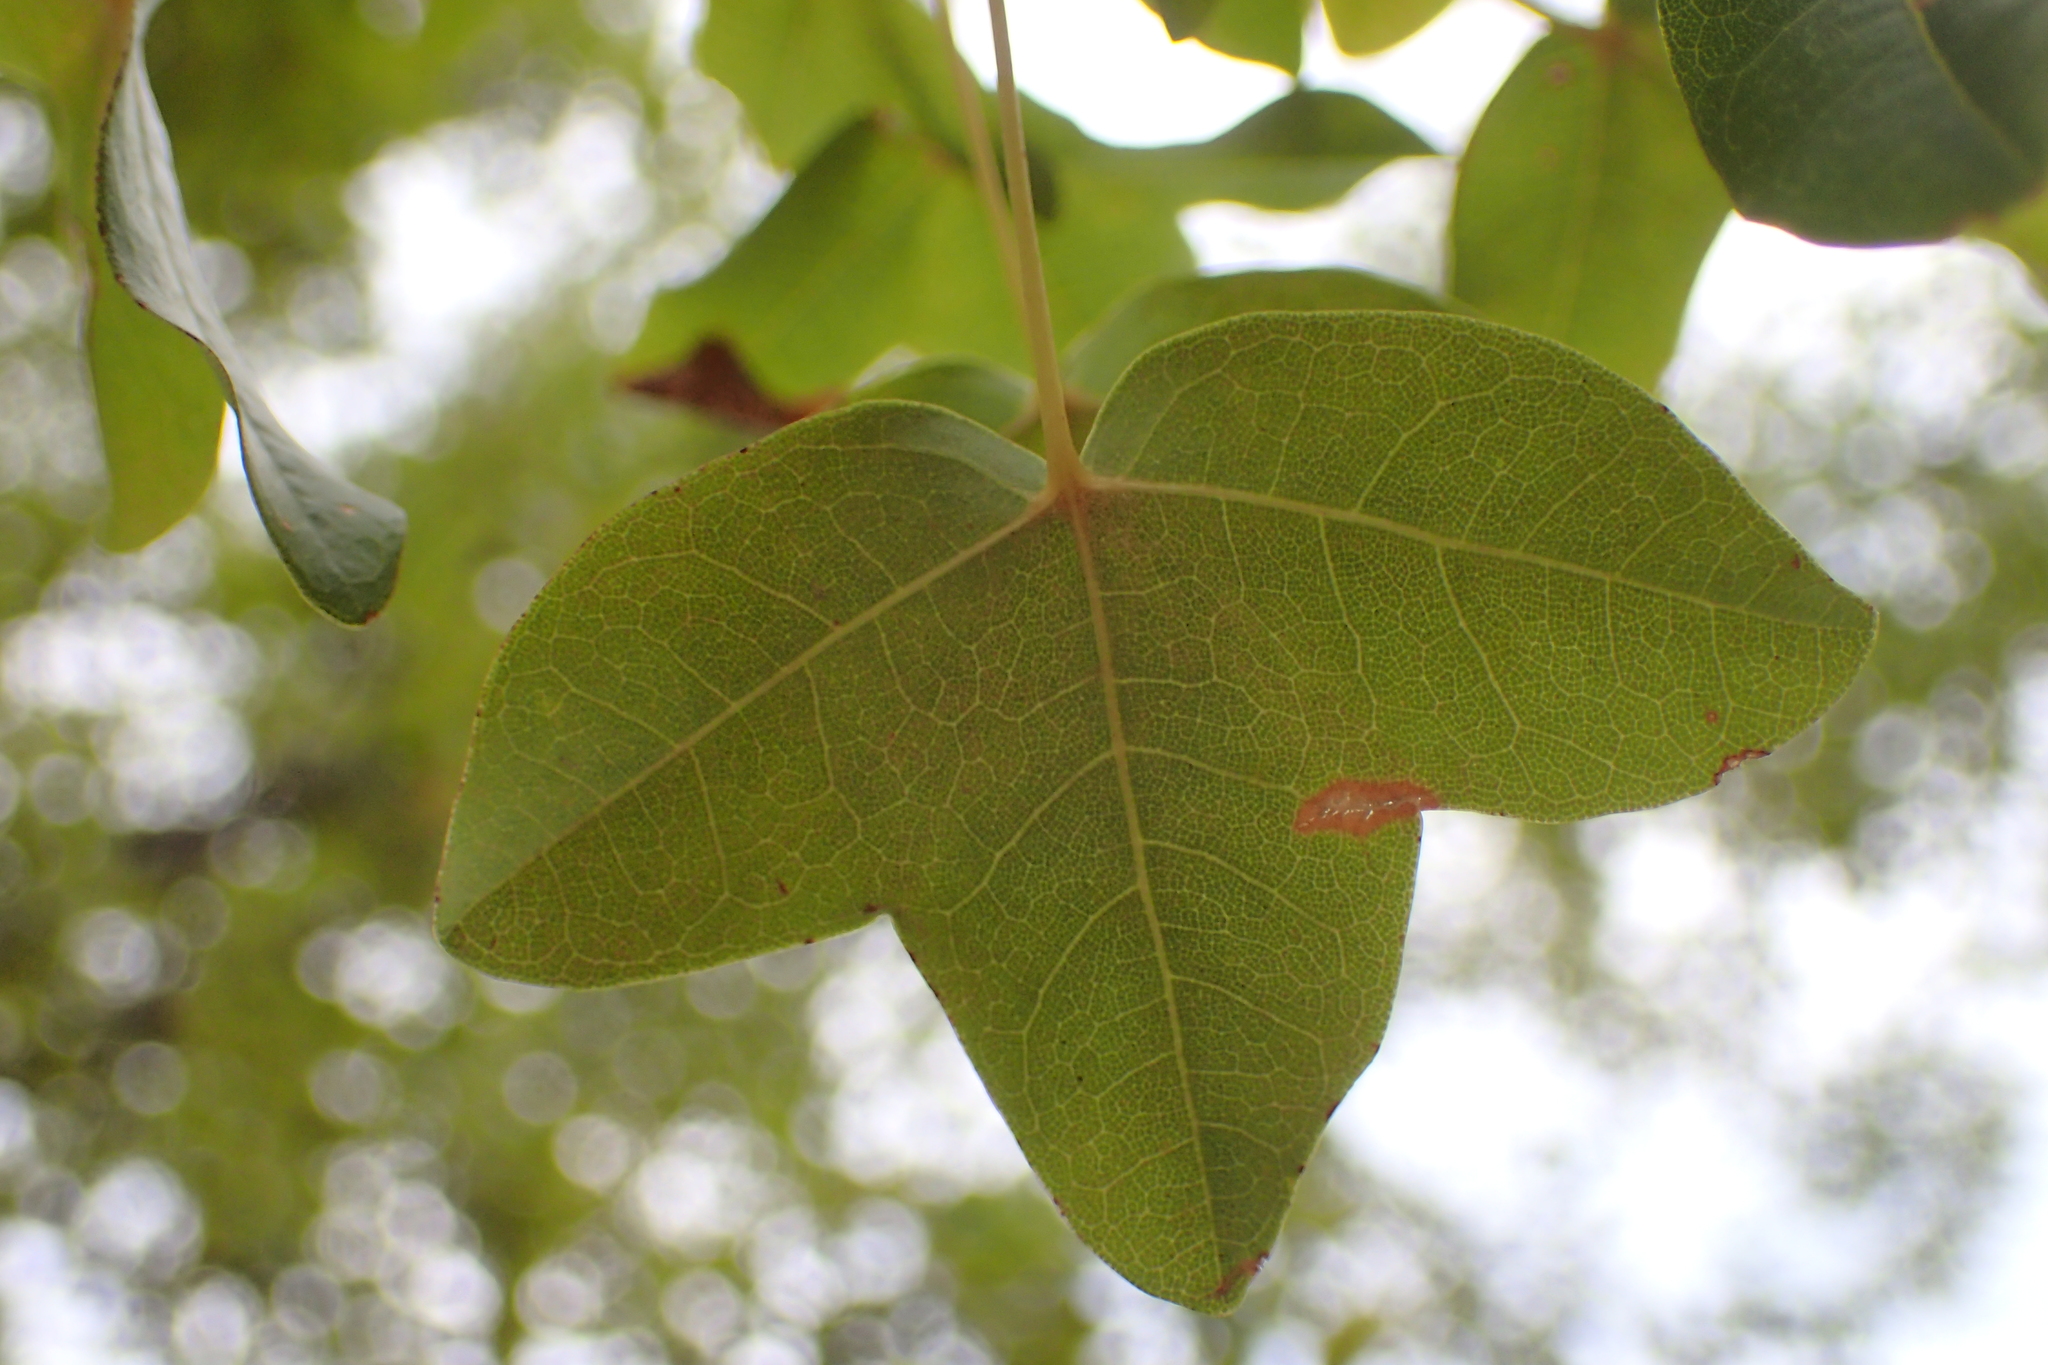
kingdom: Plantae
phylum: Tracheophyta
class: Magnoliopsida
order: Sapindales
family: Sapindaceae
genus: Acer
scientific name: Acer monspessulanum
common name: Montpellier maple
